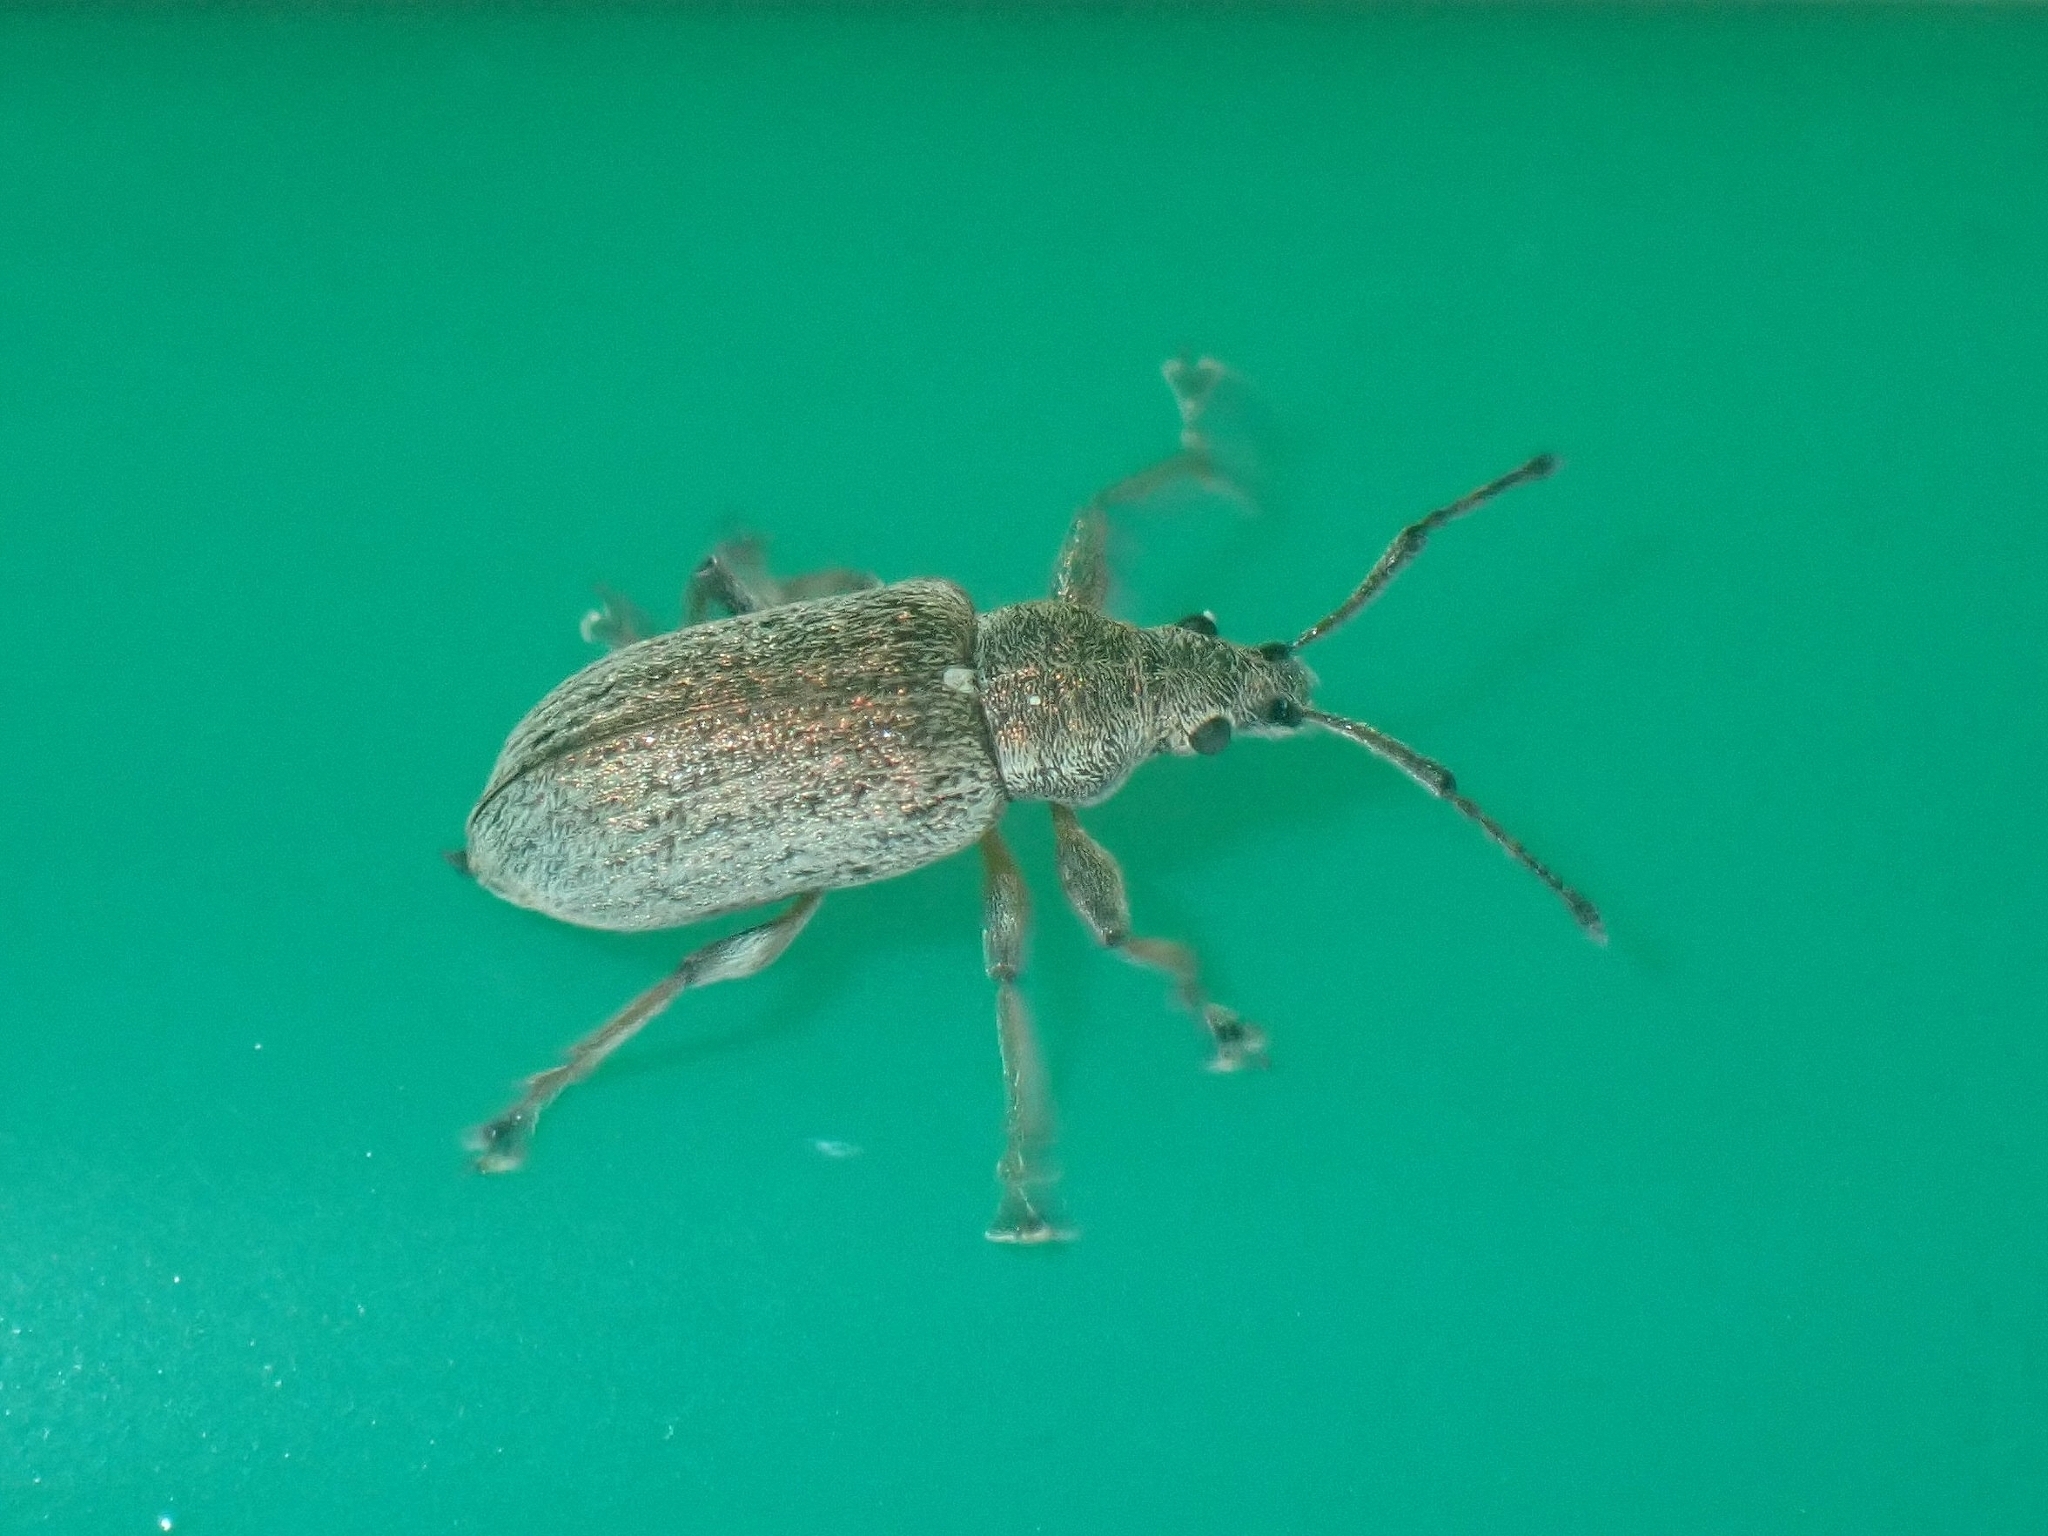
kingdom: Animalia
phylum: Arthropoda
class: Insecta
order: Coleoptera
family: Curculionidae
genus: Phyllobius
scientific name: Phyllobius pyri
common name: Common leaf weevil
